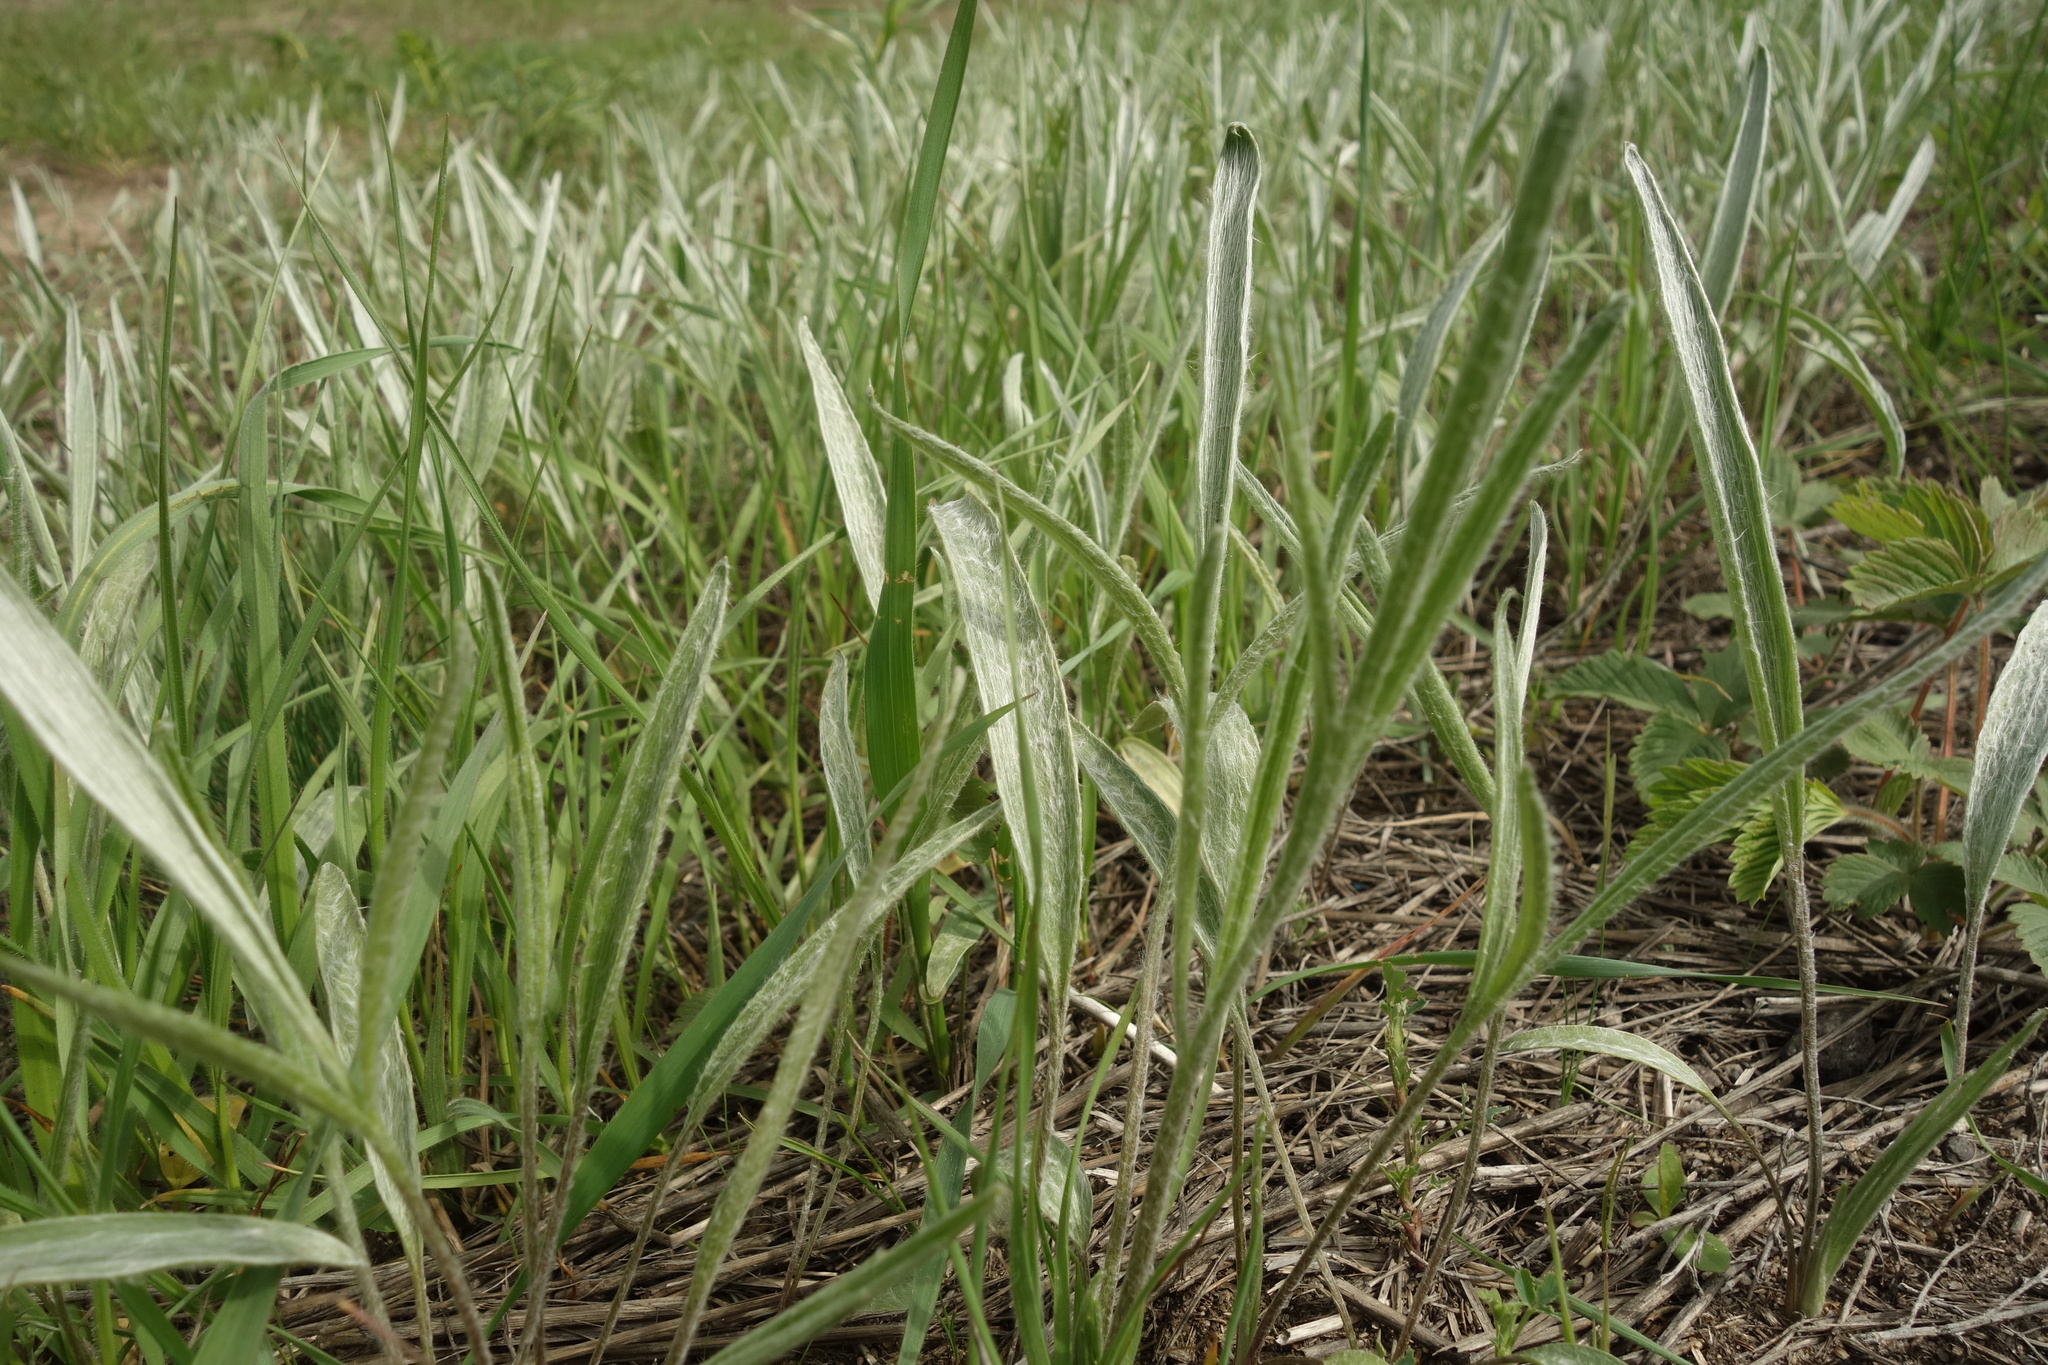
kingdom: Plantae
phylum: Tracheophyta
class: Magnoliopsida
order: Ranunculales
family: Ranunculaceae
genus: Ranunculus
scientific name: Ranunculus illyricus
